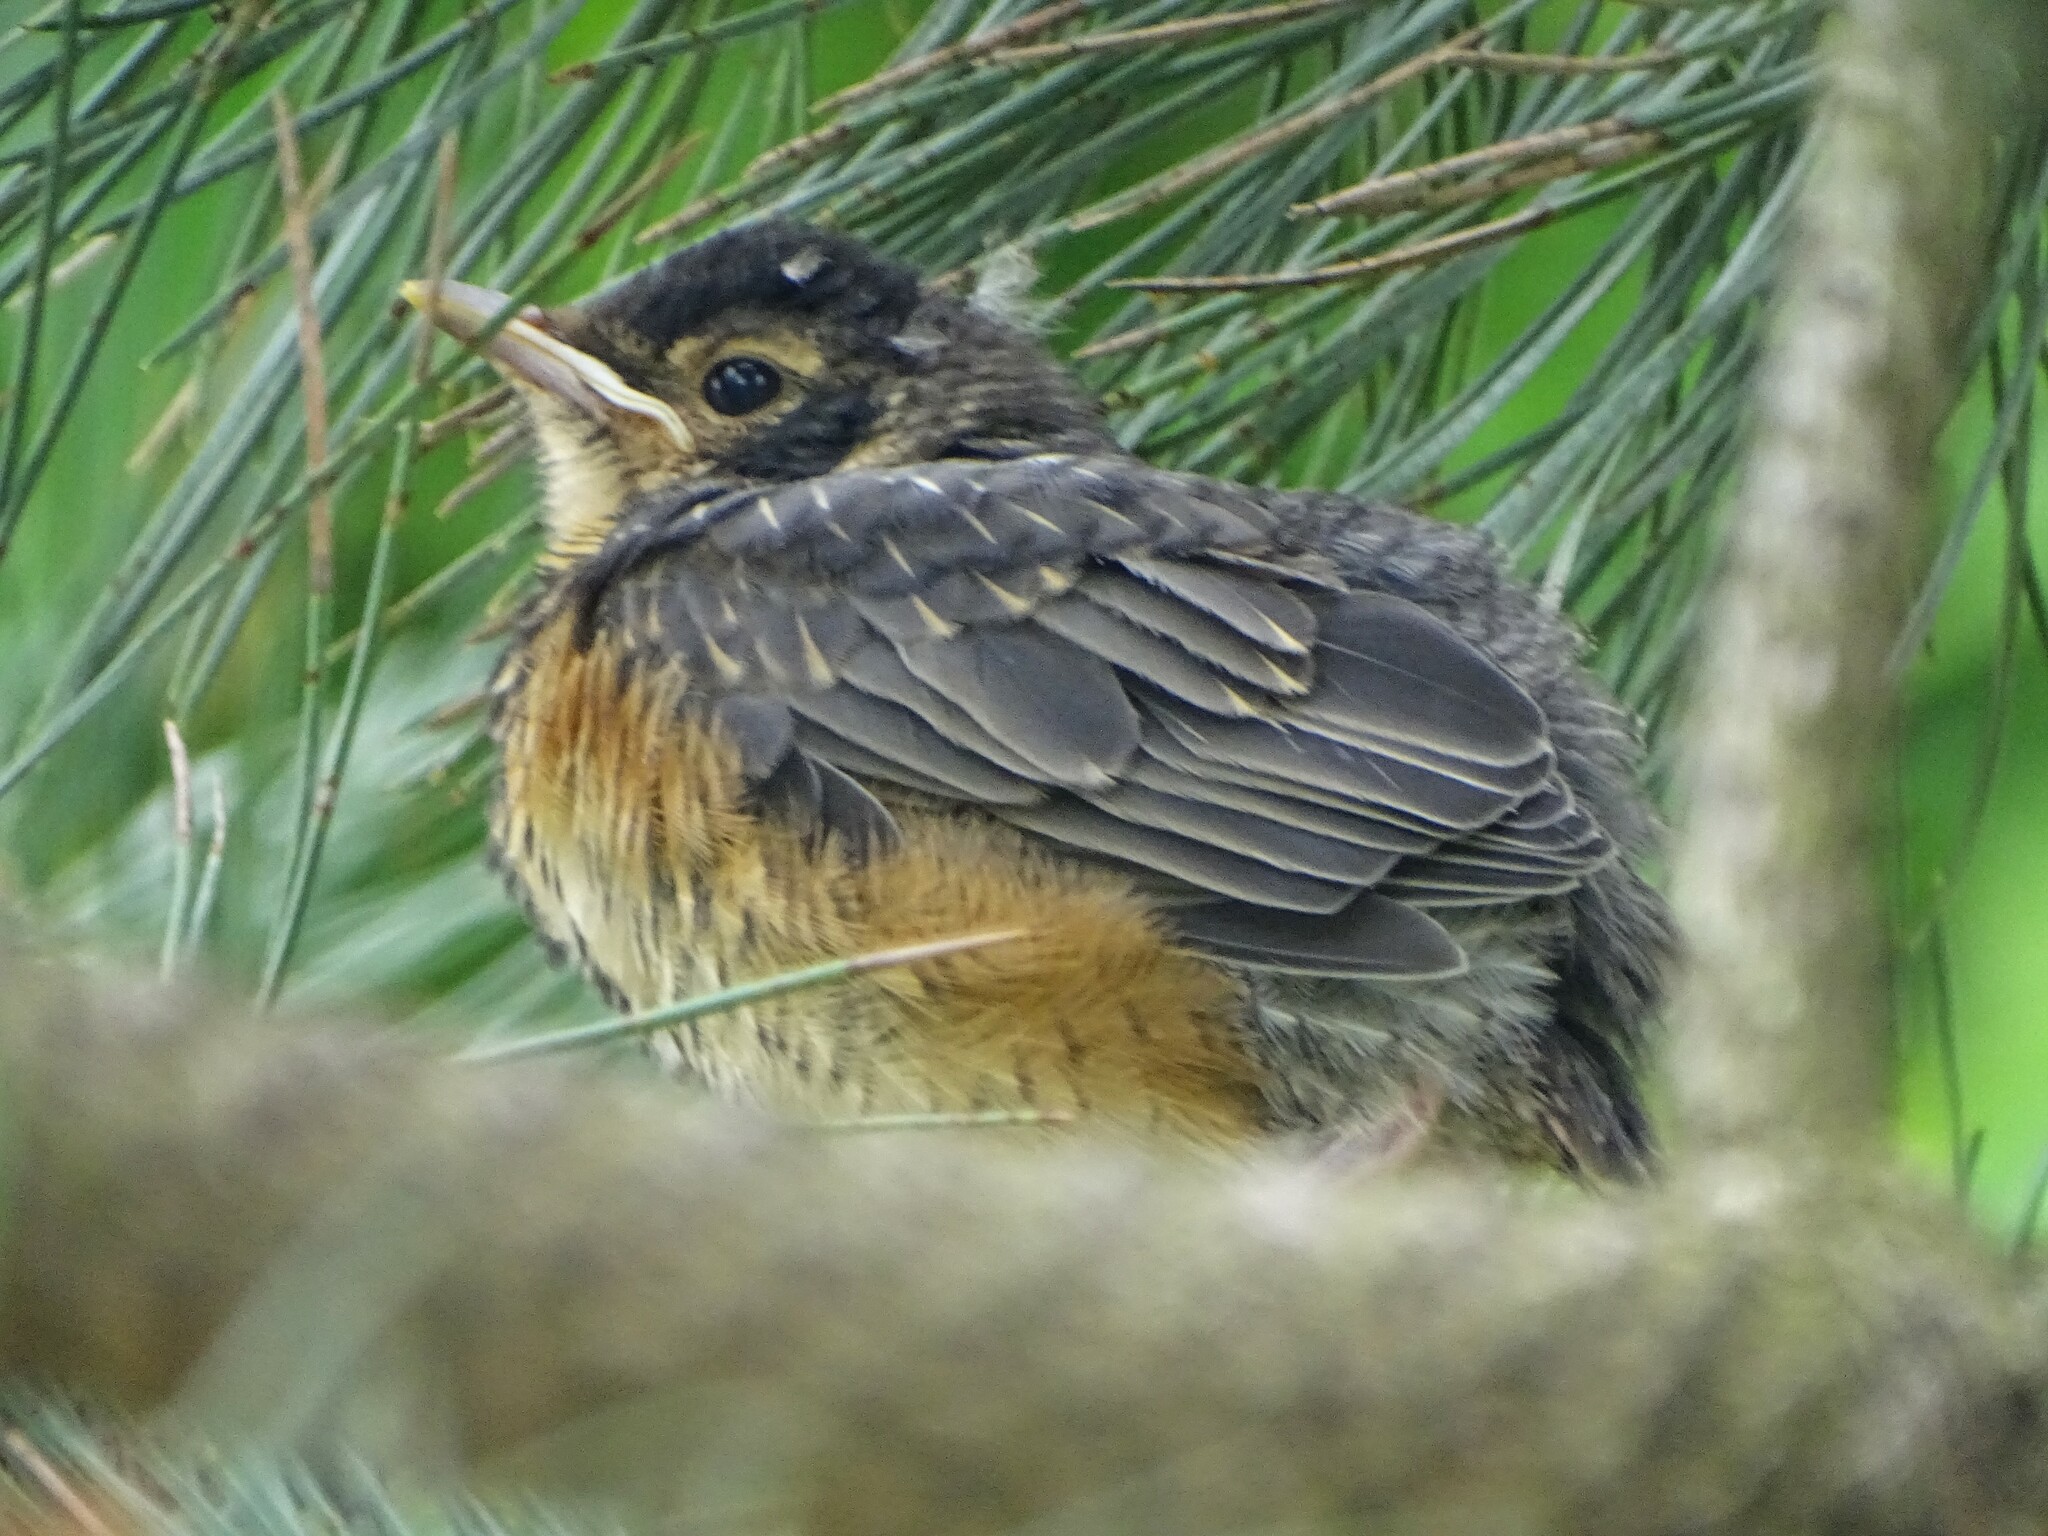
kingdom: Animalia
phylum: Chordata
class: Aves
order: Passeriformes
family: Turdidae
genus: Turdus
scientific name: Turdus migratorius
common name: American robin
